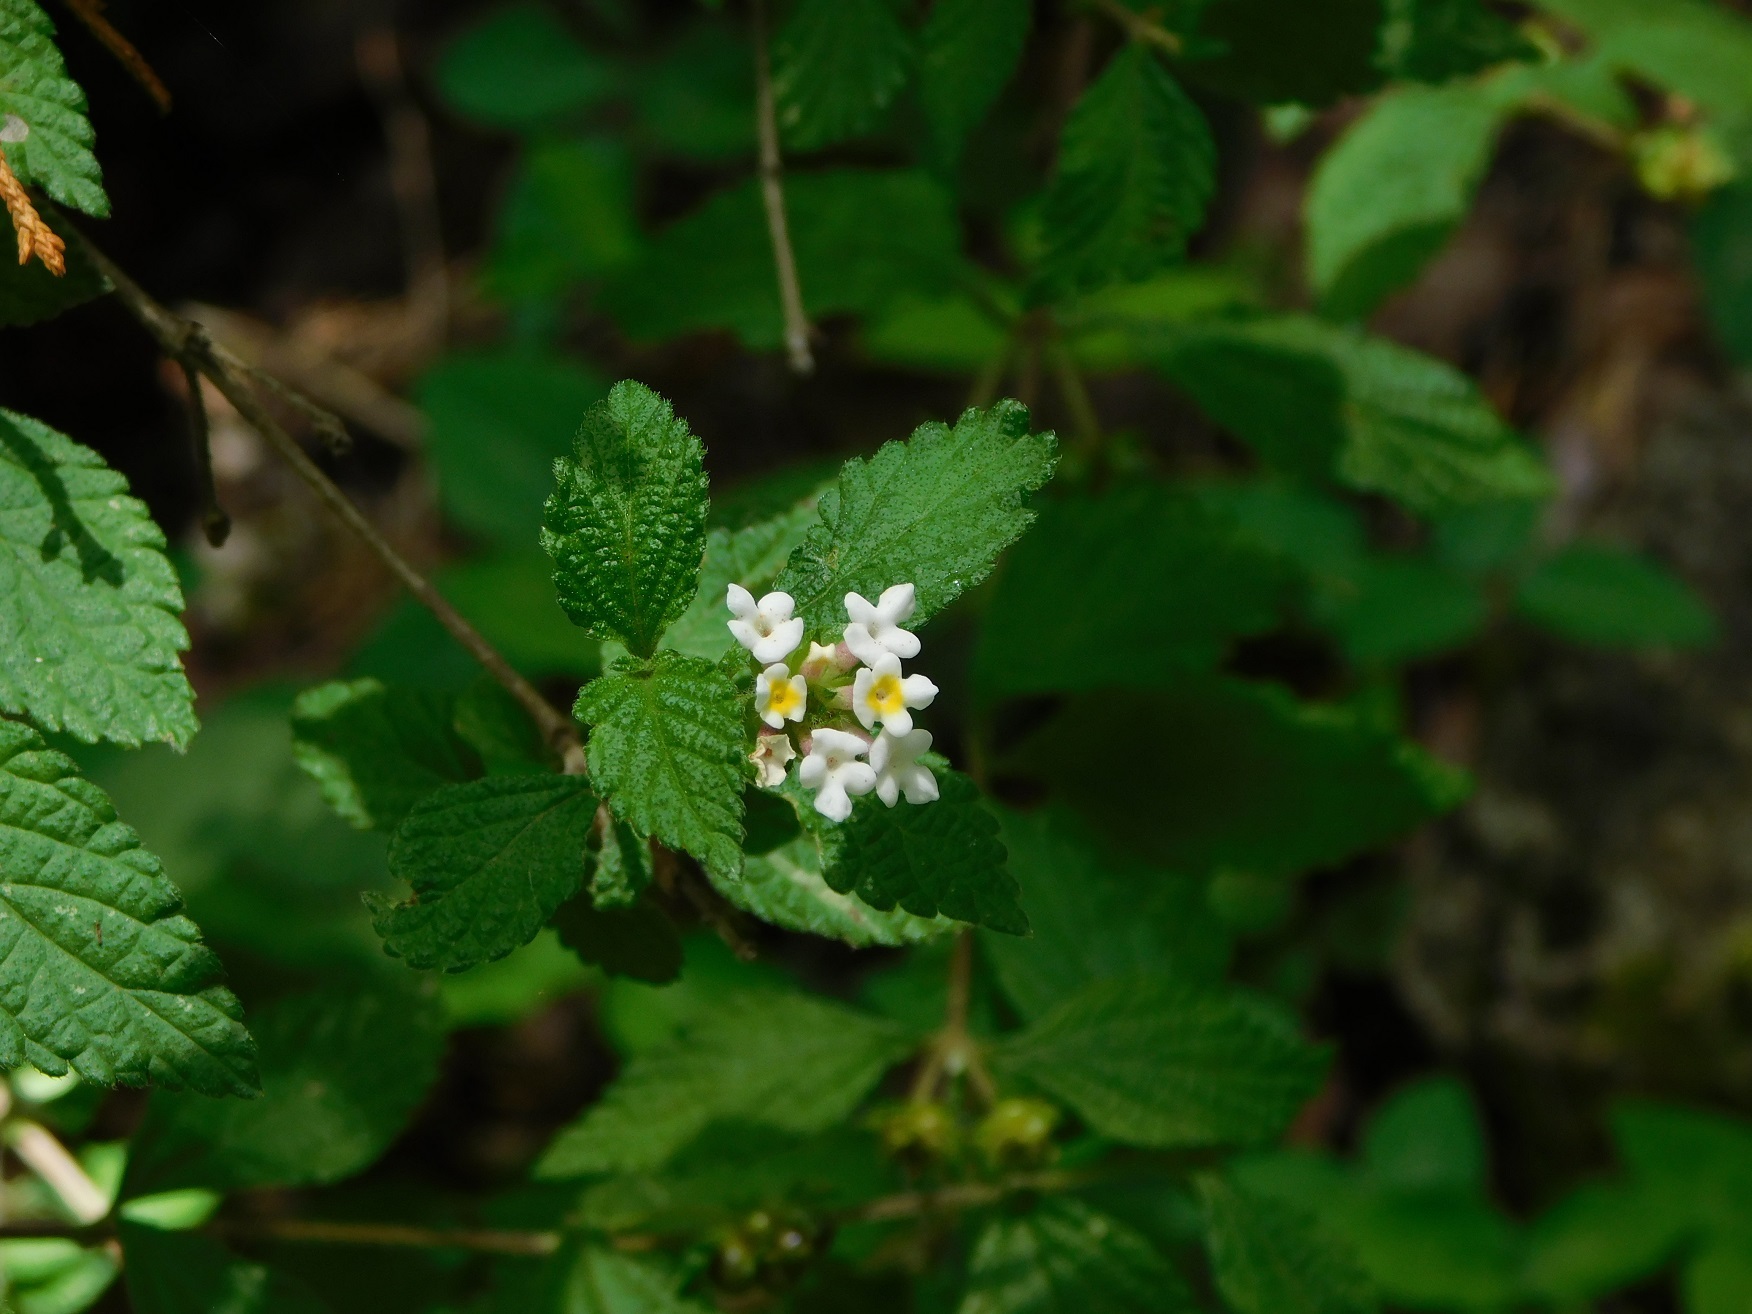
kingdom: Plantae
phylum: Tracheophyta
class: Magnoliopsida
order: Lamiales
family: Verbenaceae
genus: Lantana
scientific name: Lantana hirta
